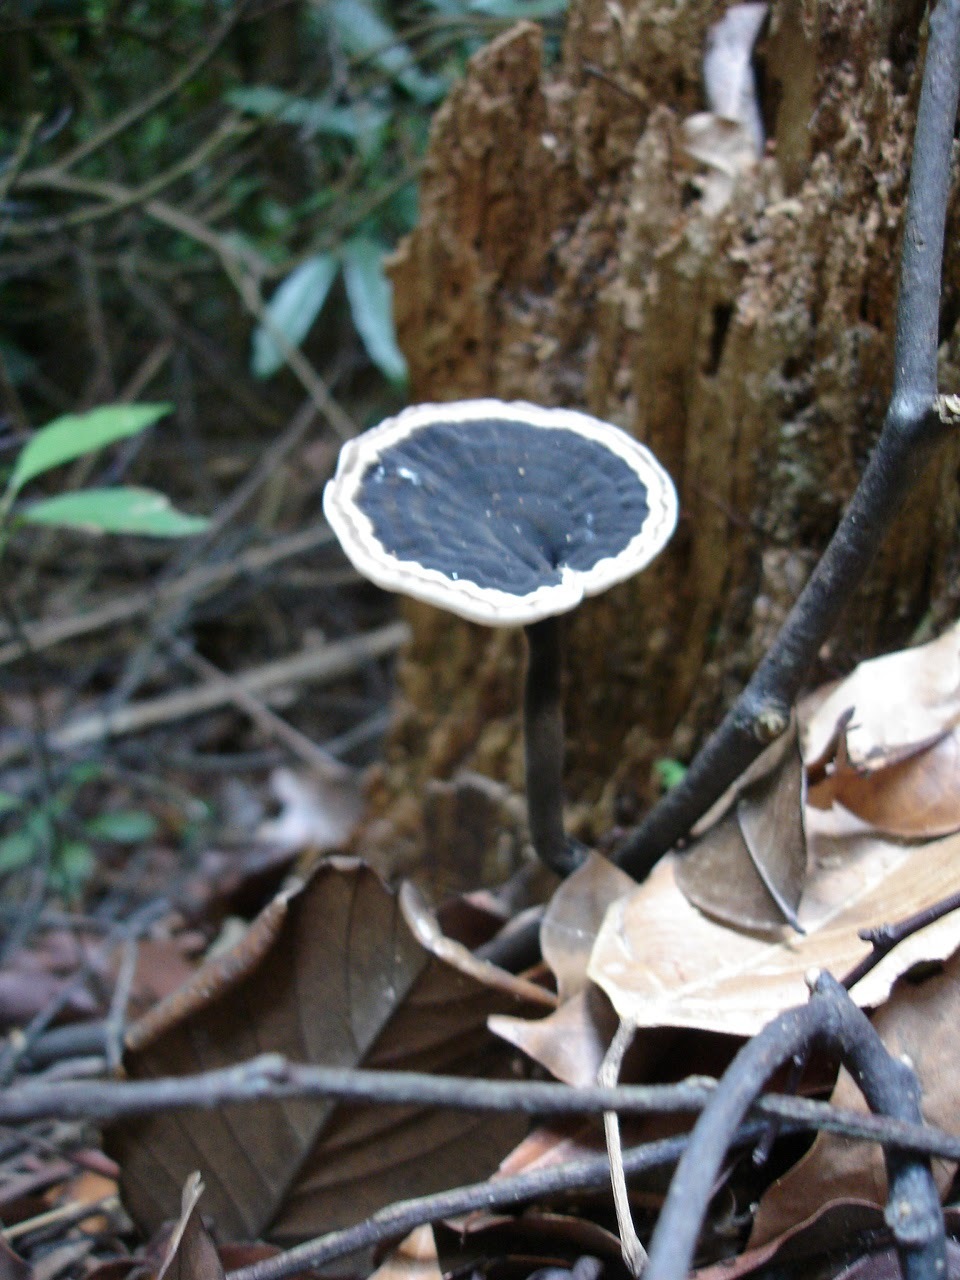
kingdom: Fungi
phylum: Basidiomycota
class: Agaricomycetes
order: Polyporales
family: Ganodermataceae
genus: Sanguinoderma
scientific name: Sanguinoderma rugosum
